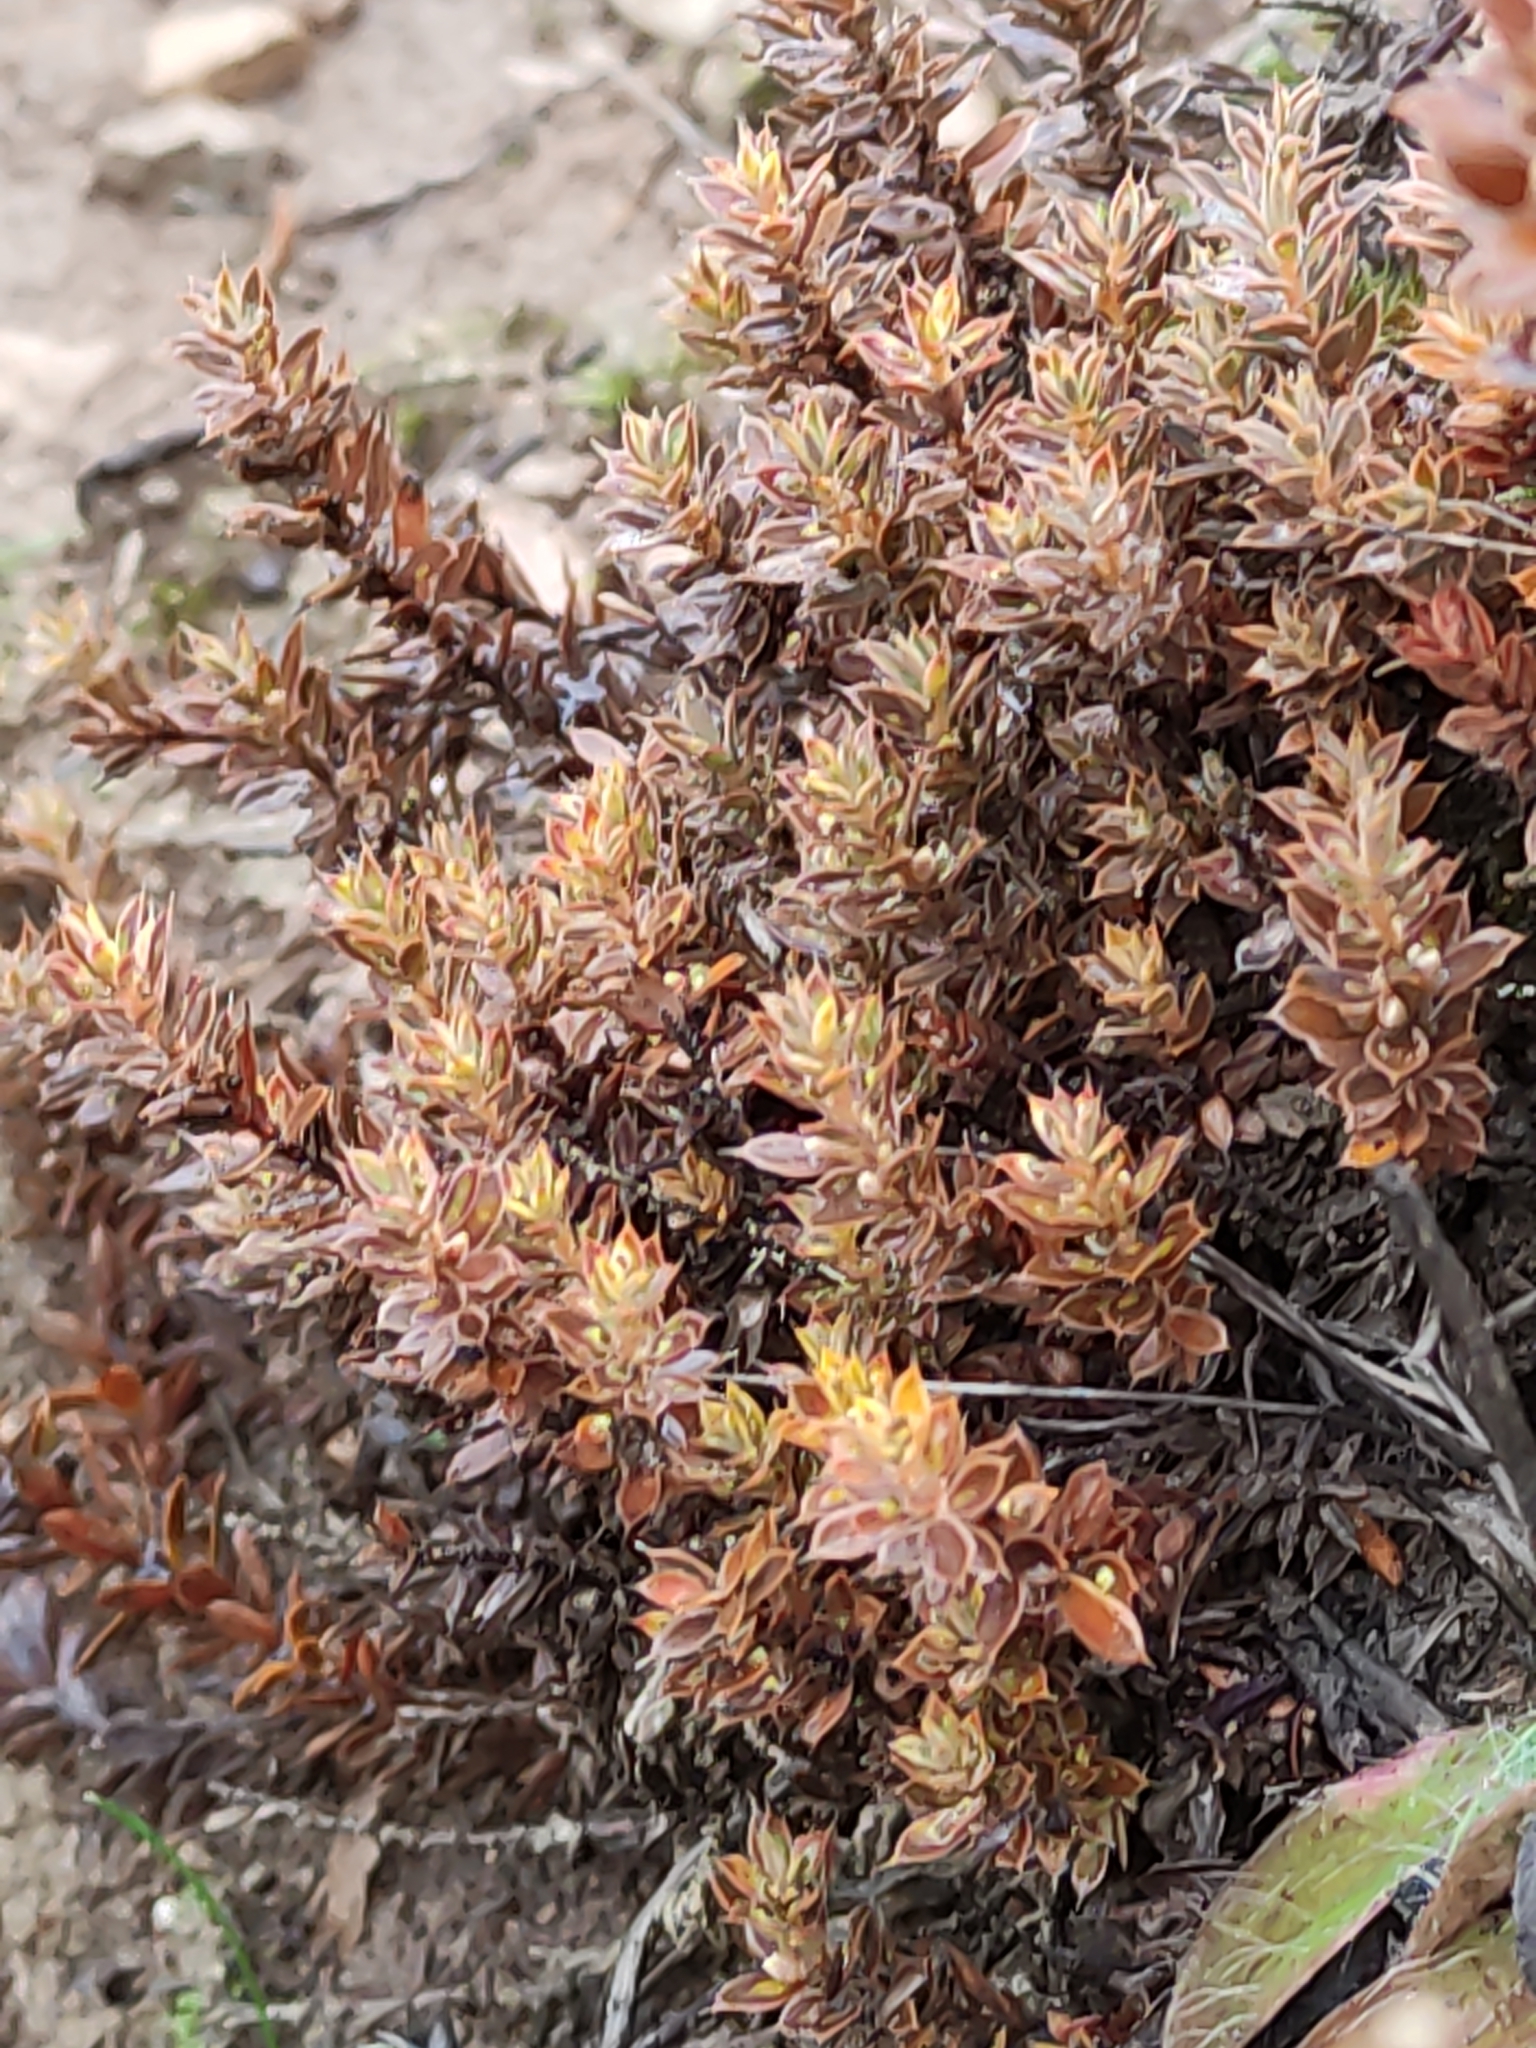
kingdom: Plantae
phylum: Tracheophyta
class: Magnoliopsida
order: Ericales
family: Ericaceae
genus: Styphelia
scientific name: Styphelia nesophila
